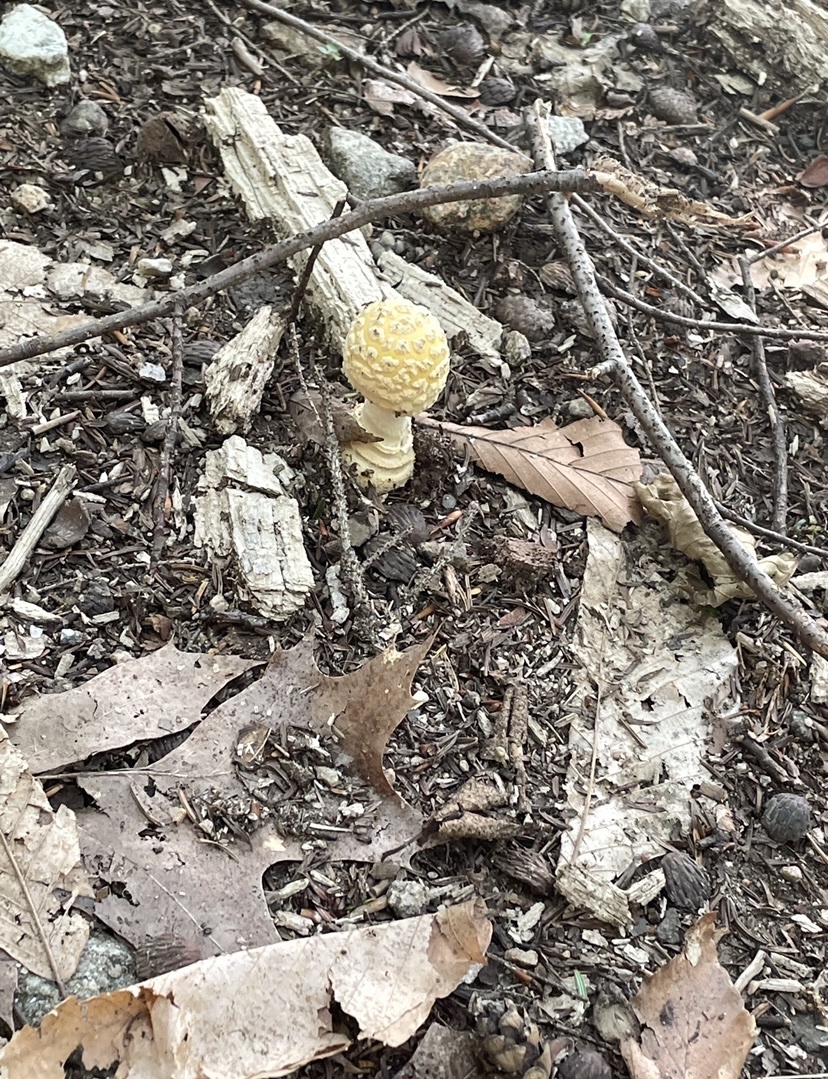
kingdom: Fungi
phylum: Basidiomycota
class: Agaricomycetes
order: Agaricales
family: Amanitaceae
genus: Amanita
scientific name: Amanita muscaria
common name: Fly agaric
